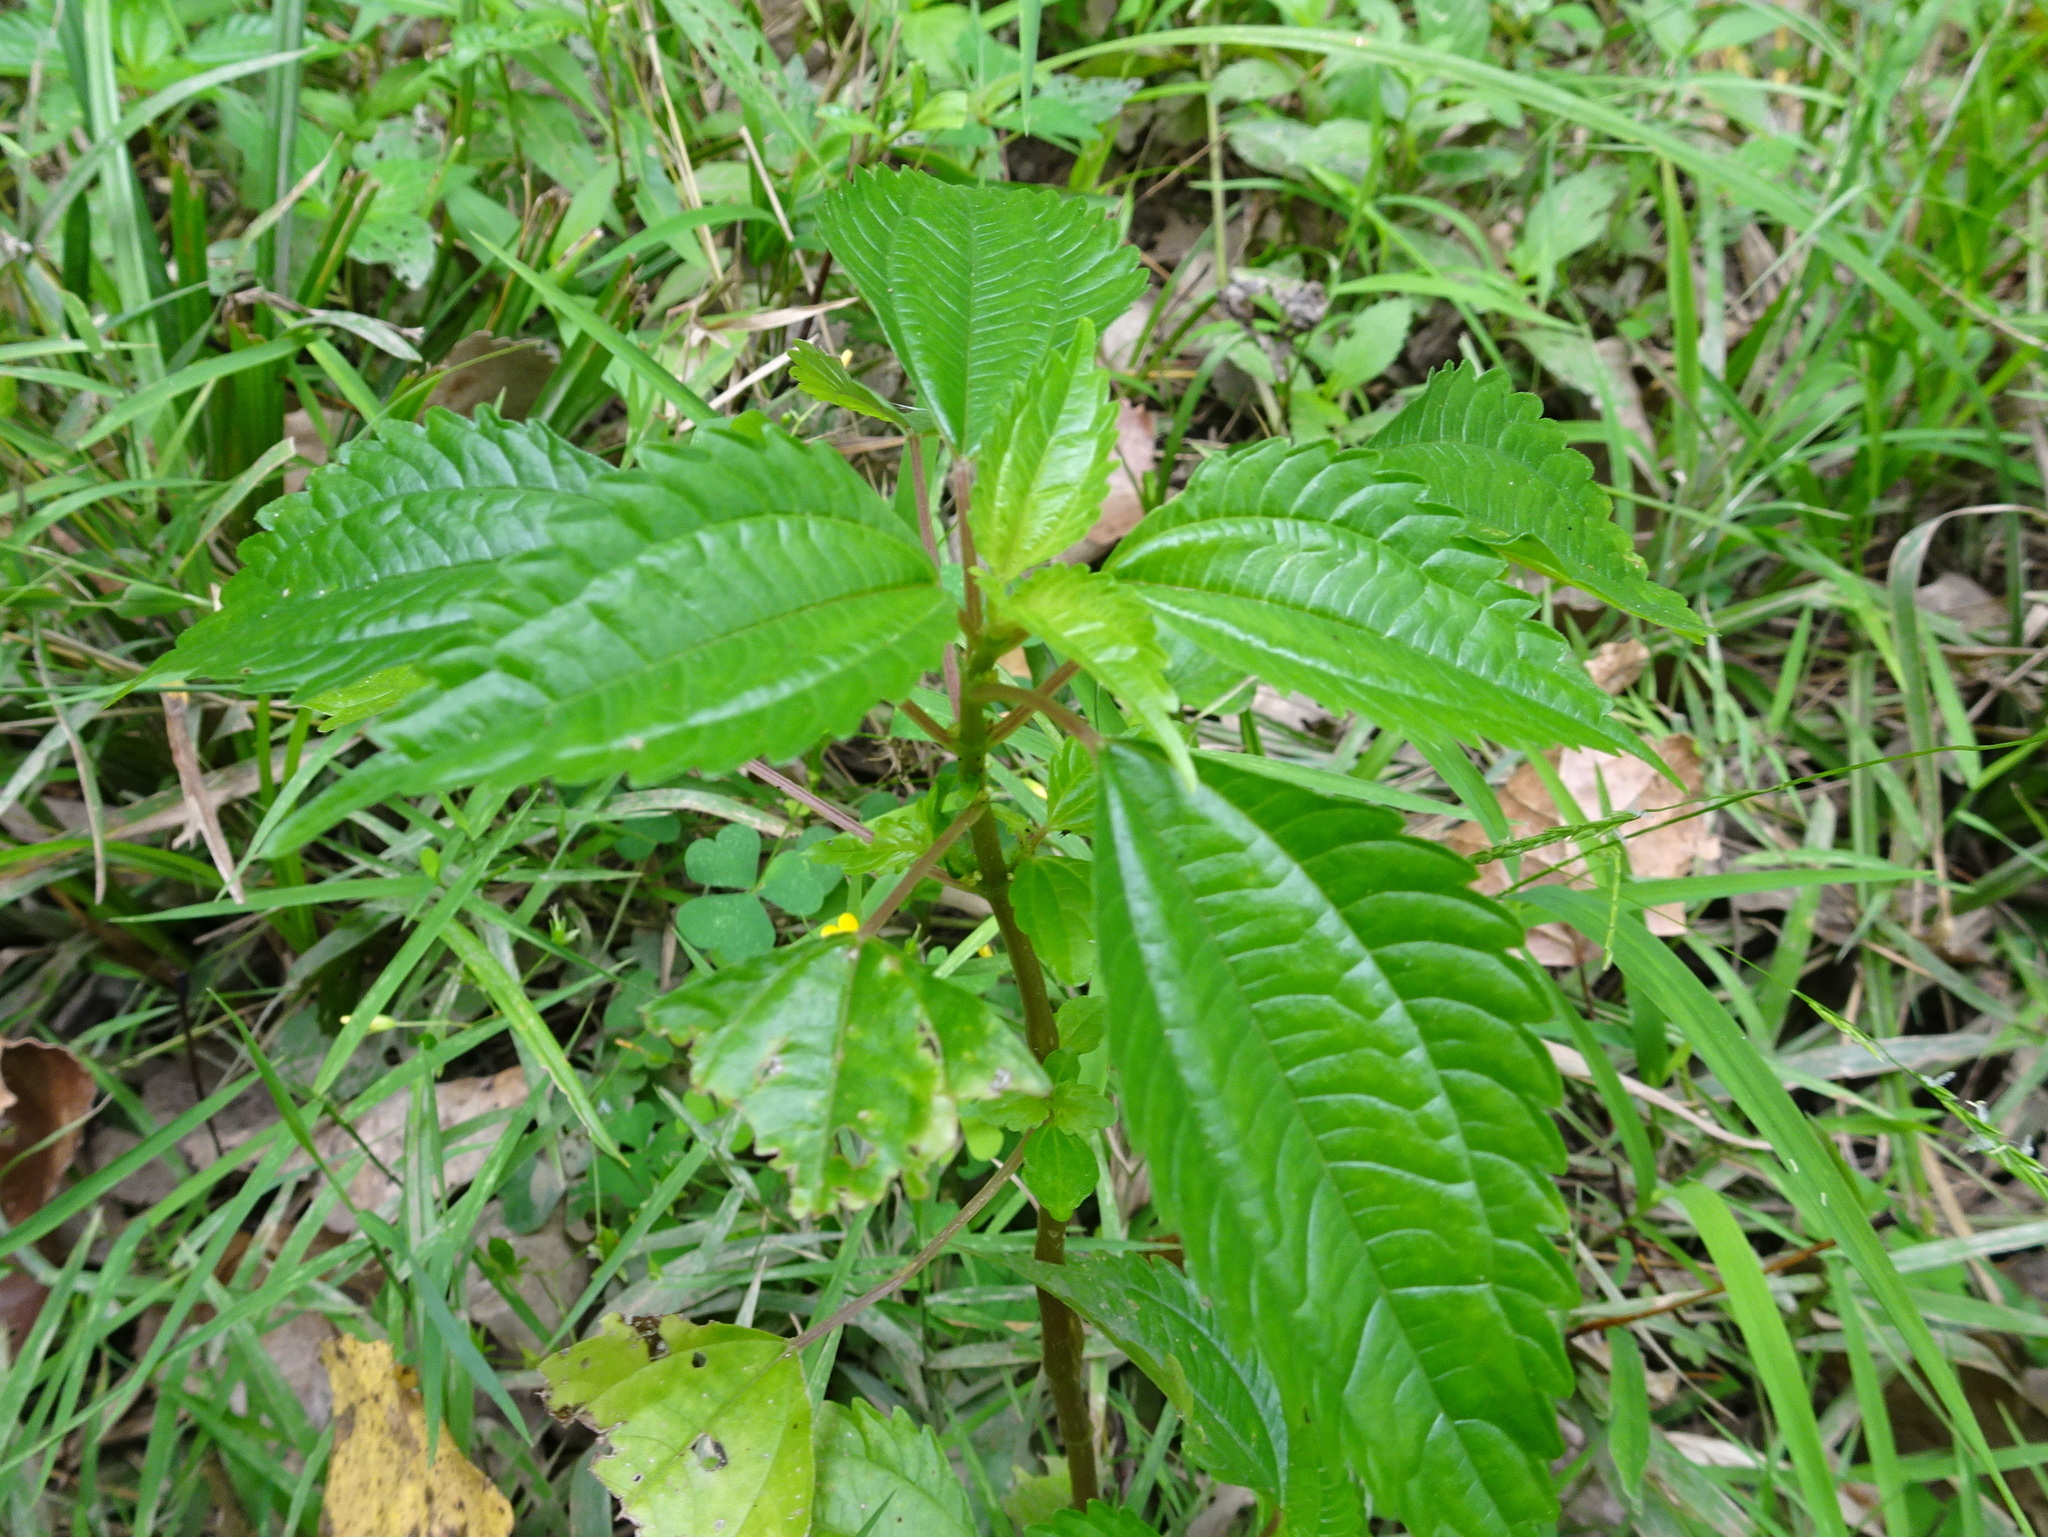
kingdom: Plantae
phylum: Tracheophyta
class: Magnoliopsida
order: Rosales
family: Urticaceae
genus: Pilea
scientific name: Pilea pumila
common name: Clearweed
